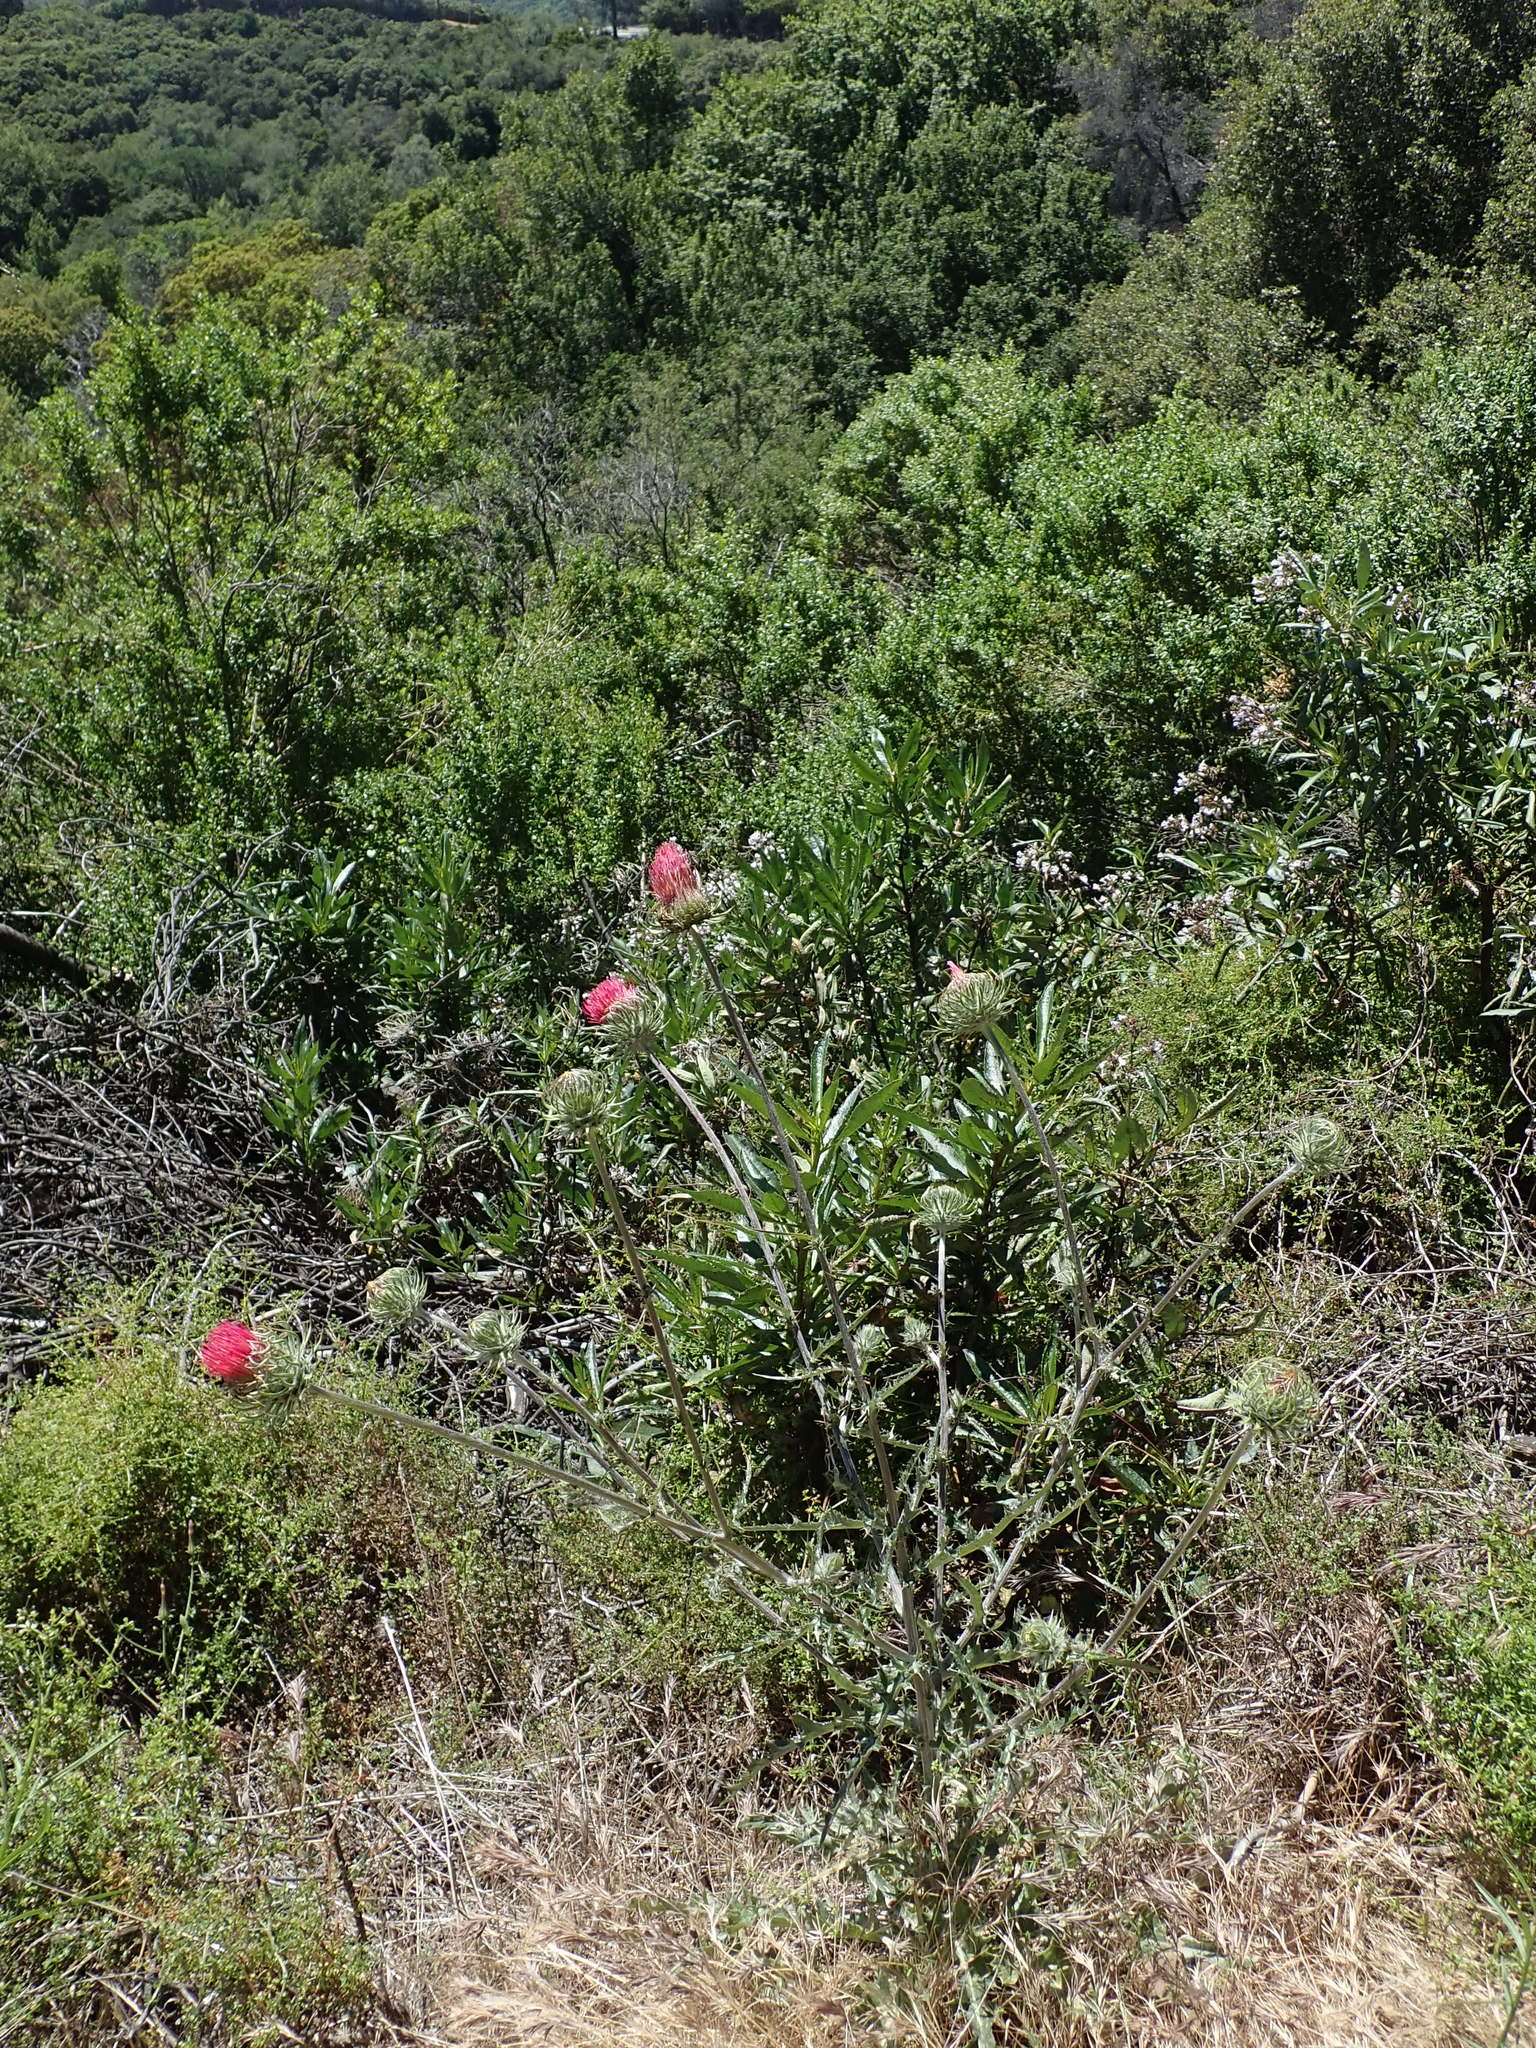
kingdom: Plantae
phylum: Tracheophyta
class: Magnoliopsida
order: Asterales
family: Asteraceae
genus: Cirsium
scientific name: Cirsium occidentale
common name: Western thistle
